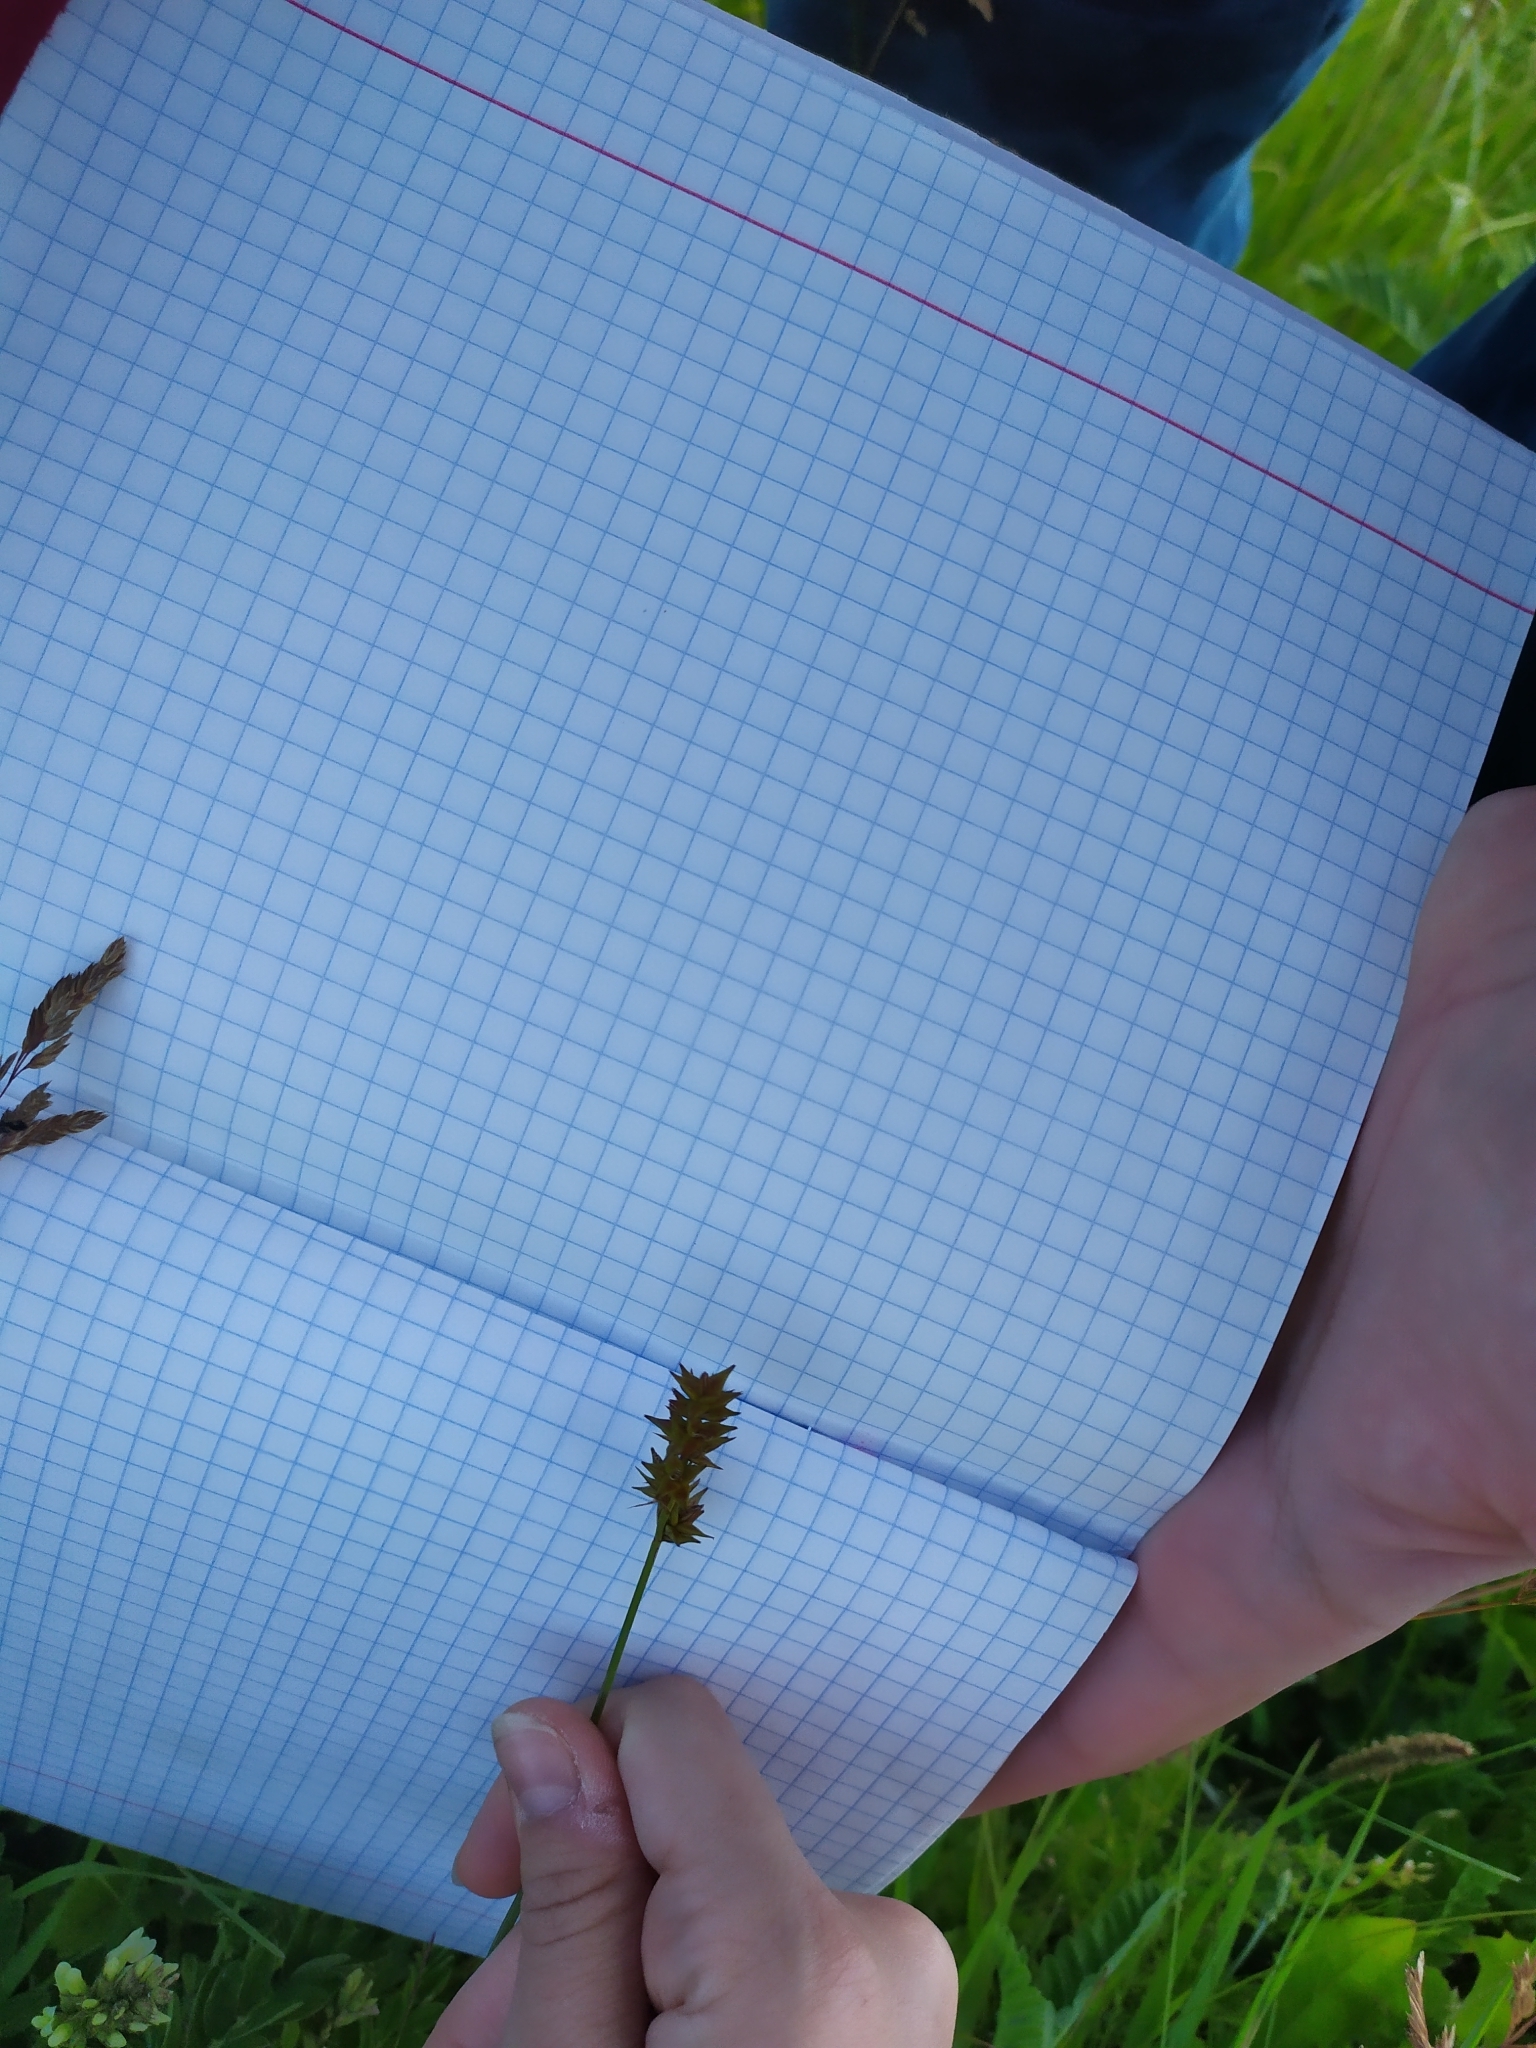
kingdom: Plantae
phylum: Tracheophyta
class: Liliopsida
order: Poales
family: Cyperaceae
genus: Carex
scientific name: Carex spicata
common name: Spiked sedge
